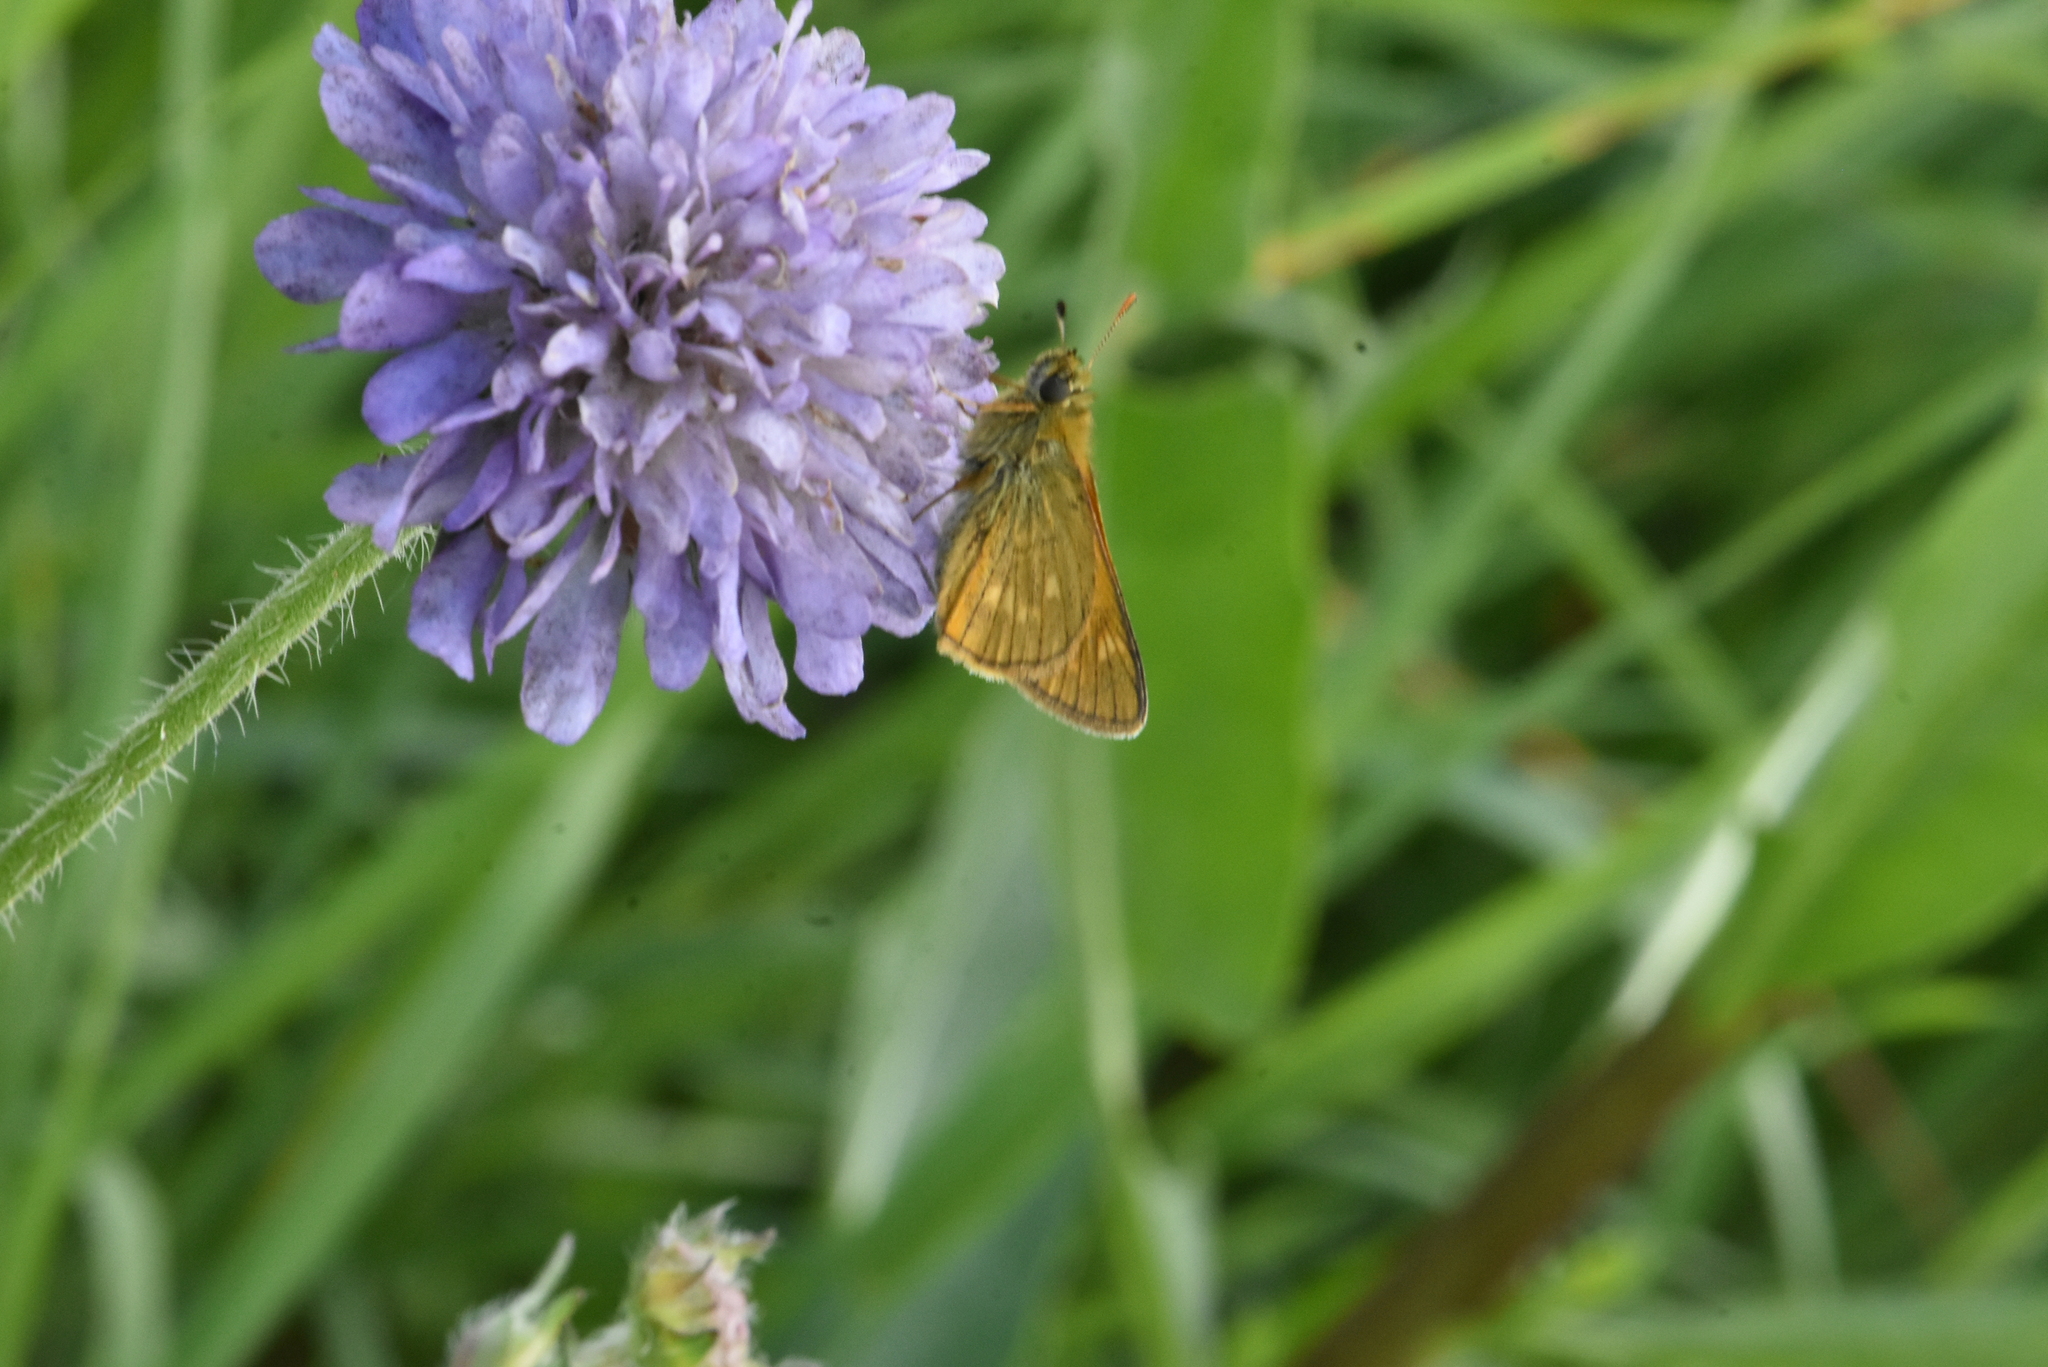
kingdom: Animalia
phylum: Arthropoda
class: Insecta
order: Lepidoptera
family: Hesperiidae
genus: Ochlodes
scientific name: Ochlodes venata
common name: Large skipper
